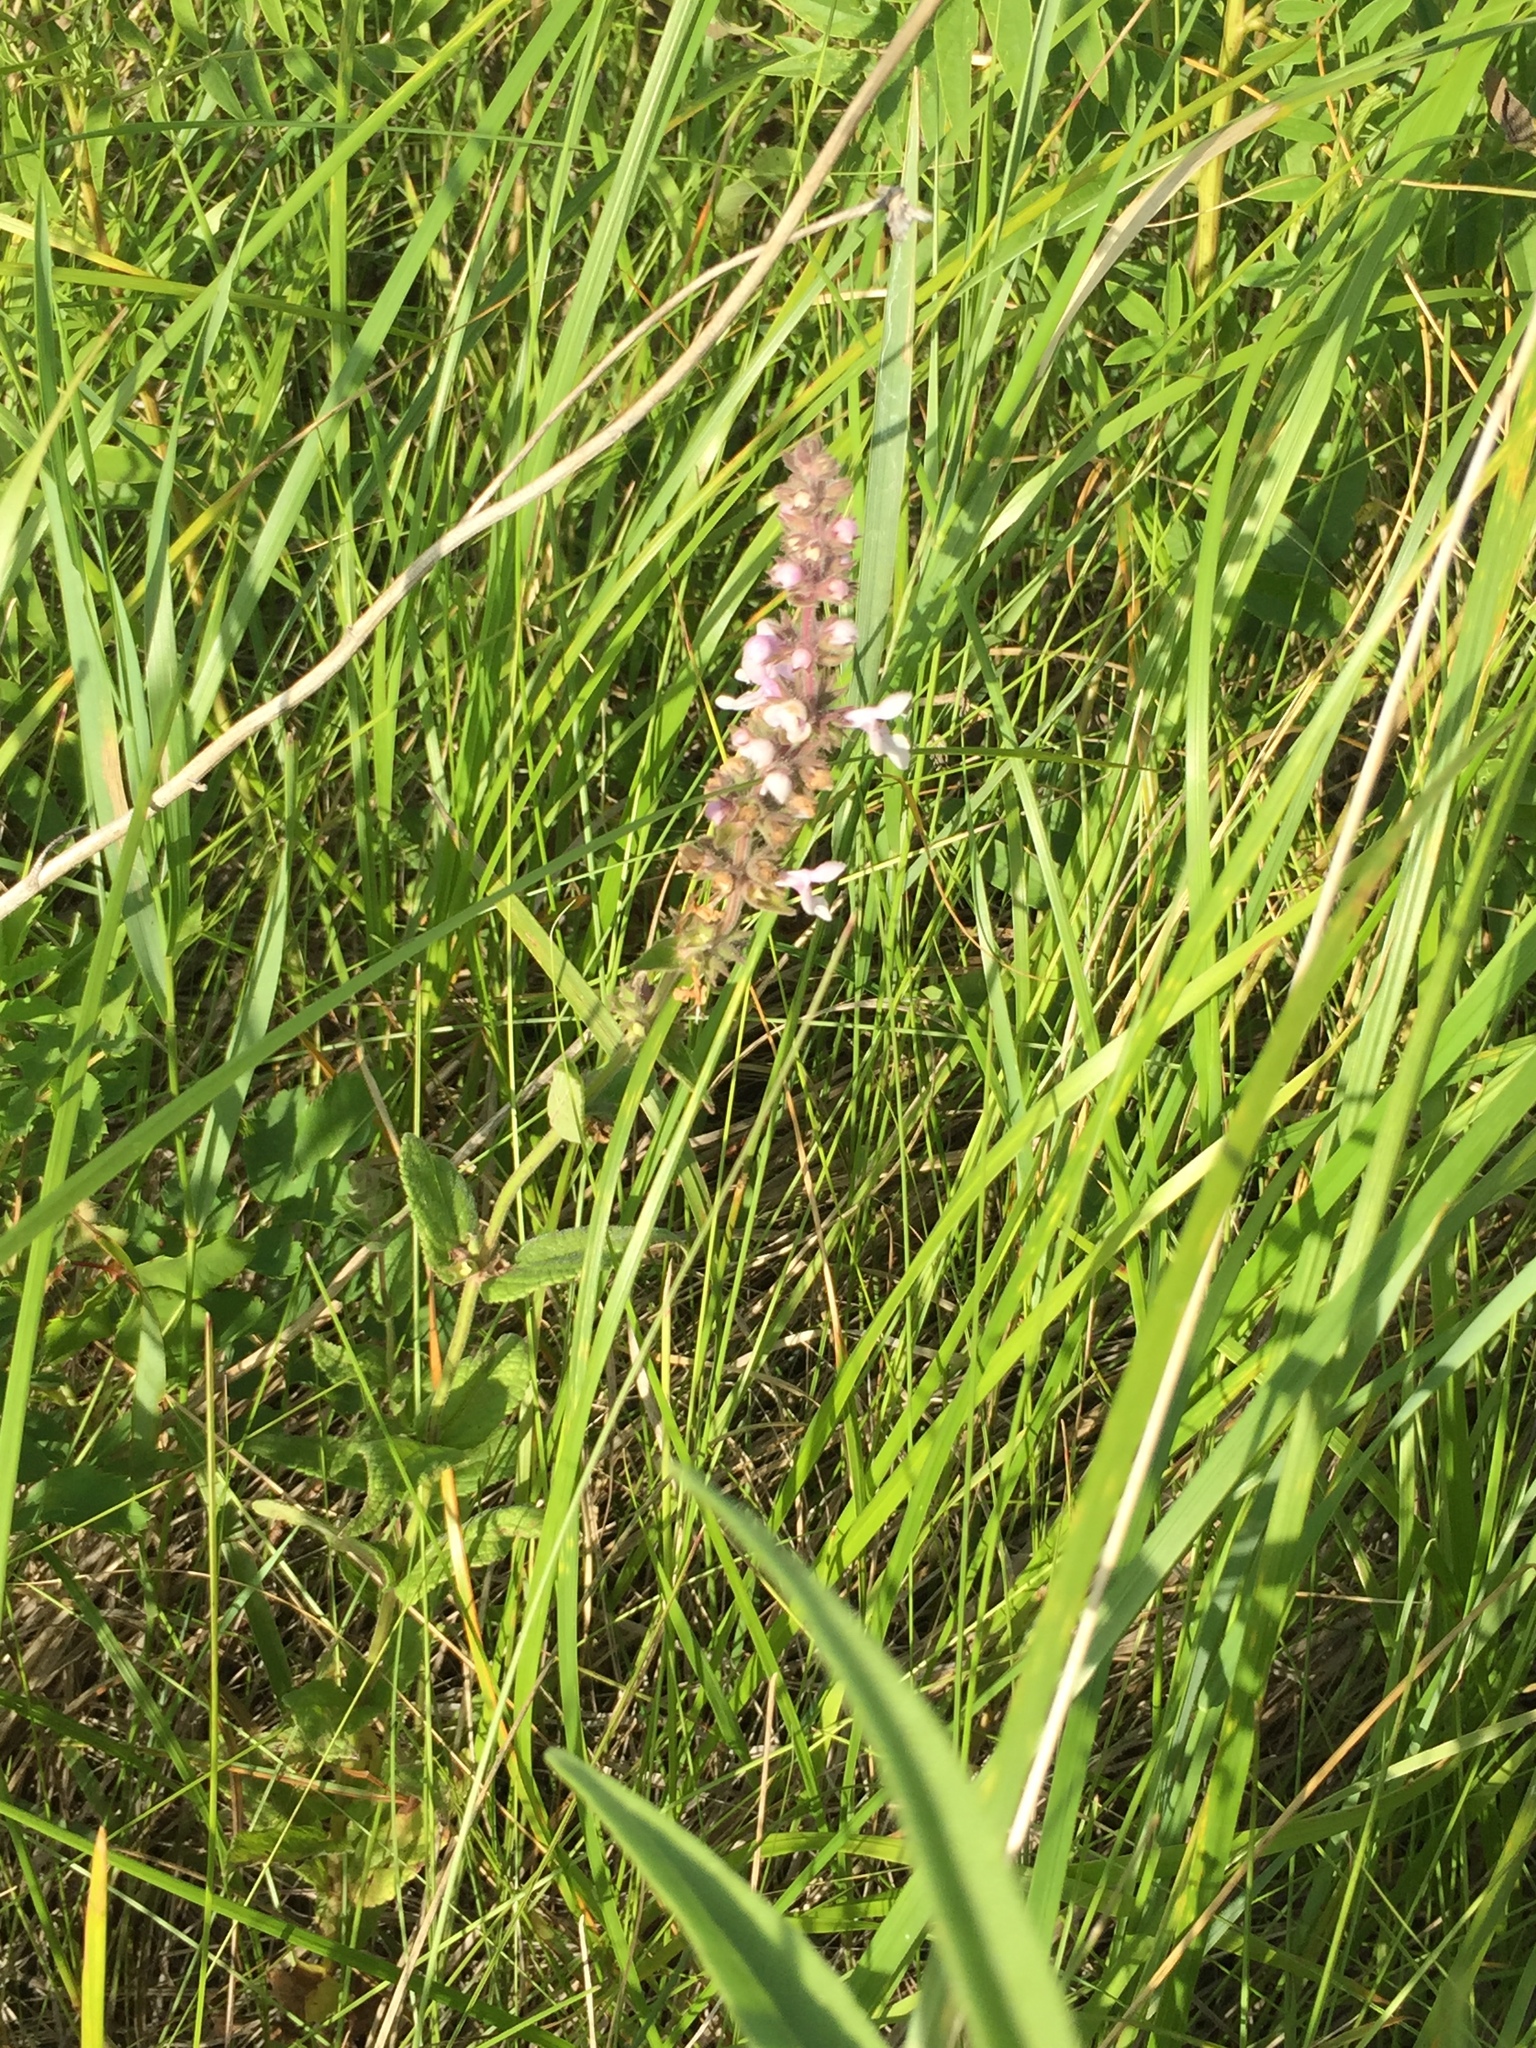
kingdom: Plantae
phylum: Tracheophyta
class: Magnoliopsida
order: Lamiales
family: Lamiaceae
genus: Stachys
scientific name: Stachys palustris
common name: Marsh woundwort
